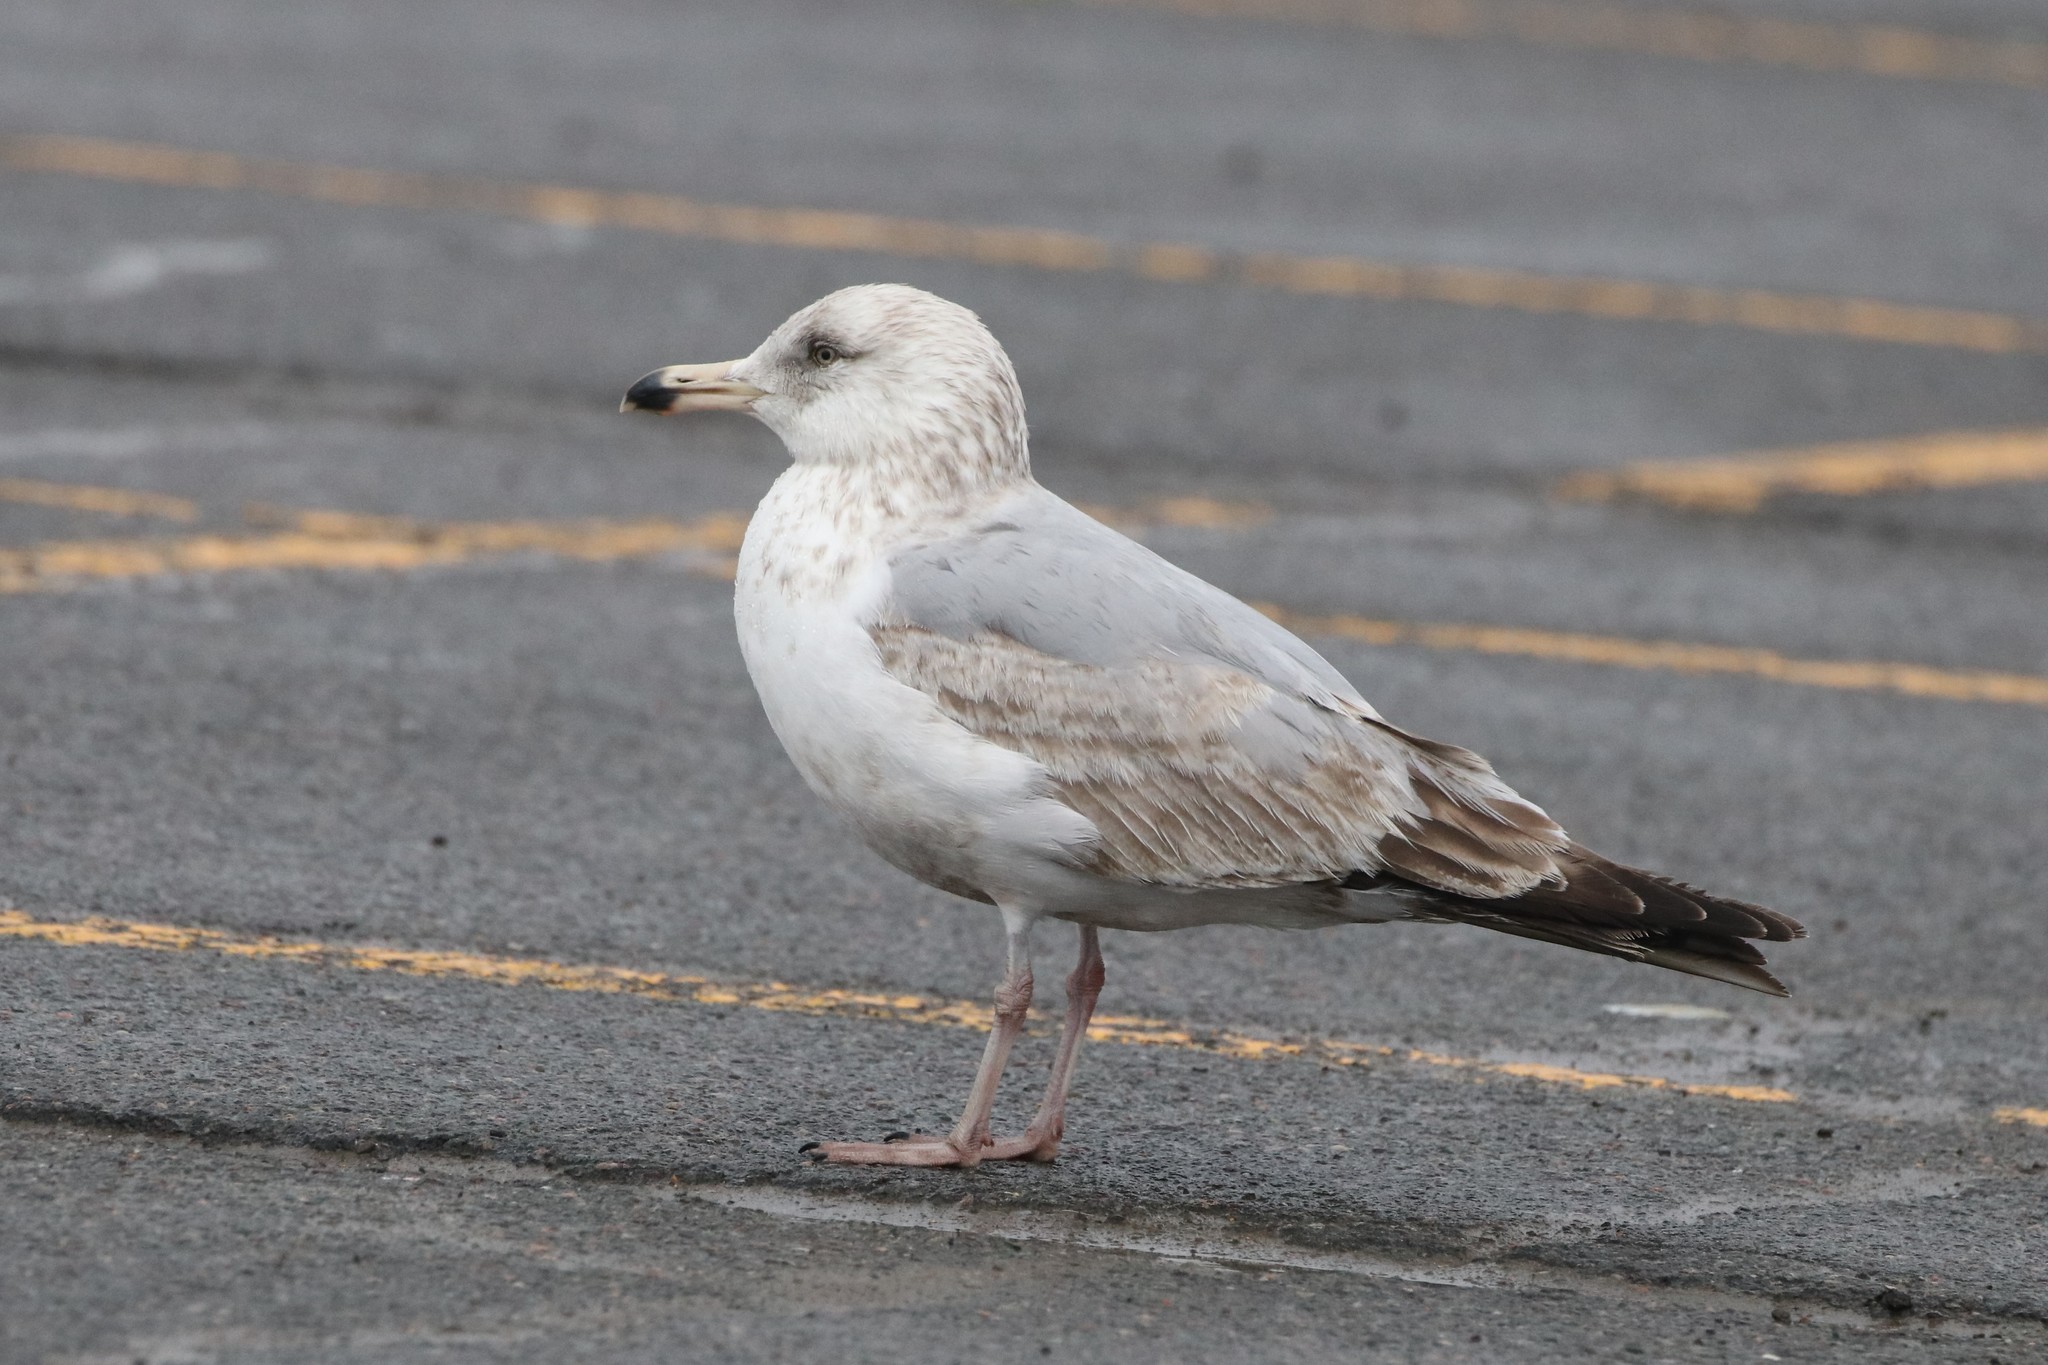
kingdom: Animalia
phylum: Chordata
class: Aves
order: Charadriiformes
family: Laridae
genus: Larus
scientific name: Larus argentatus
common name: Herring gull
